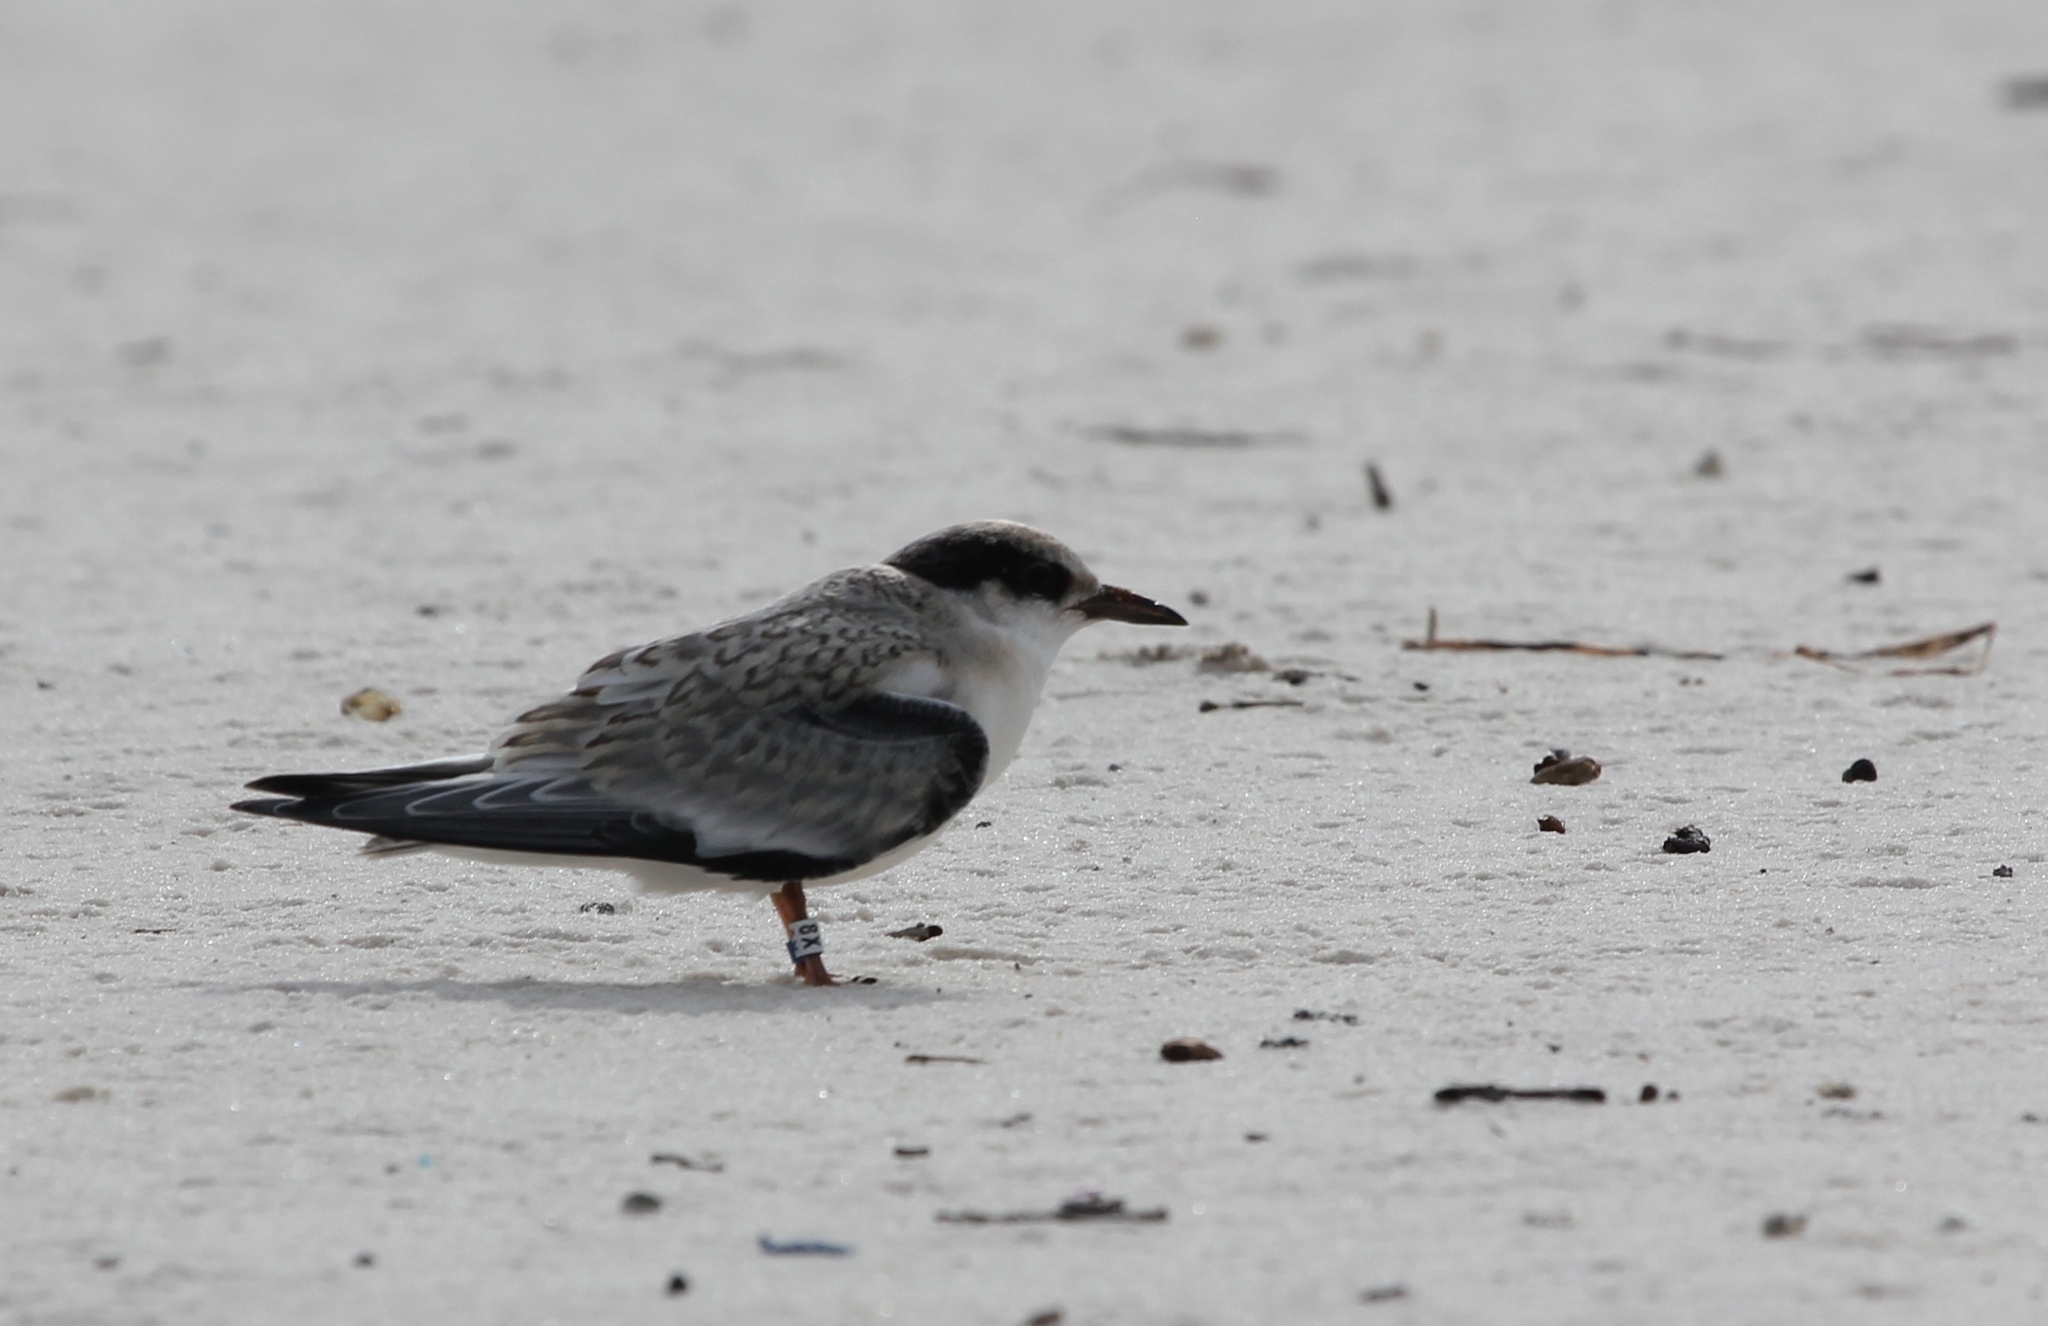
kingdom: Animalia
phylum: Chordata
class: Aves
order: Charadriiformes
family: Laridae
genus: Sternula
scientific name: Sternula antillarum
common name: Least tern
